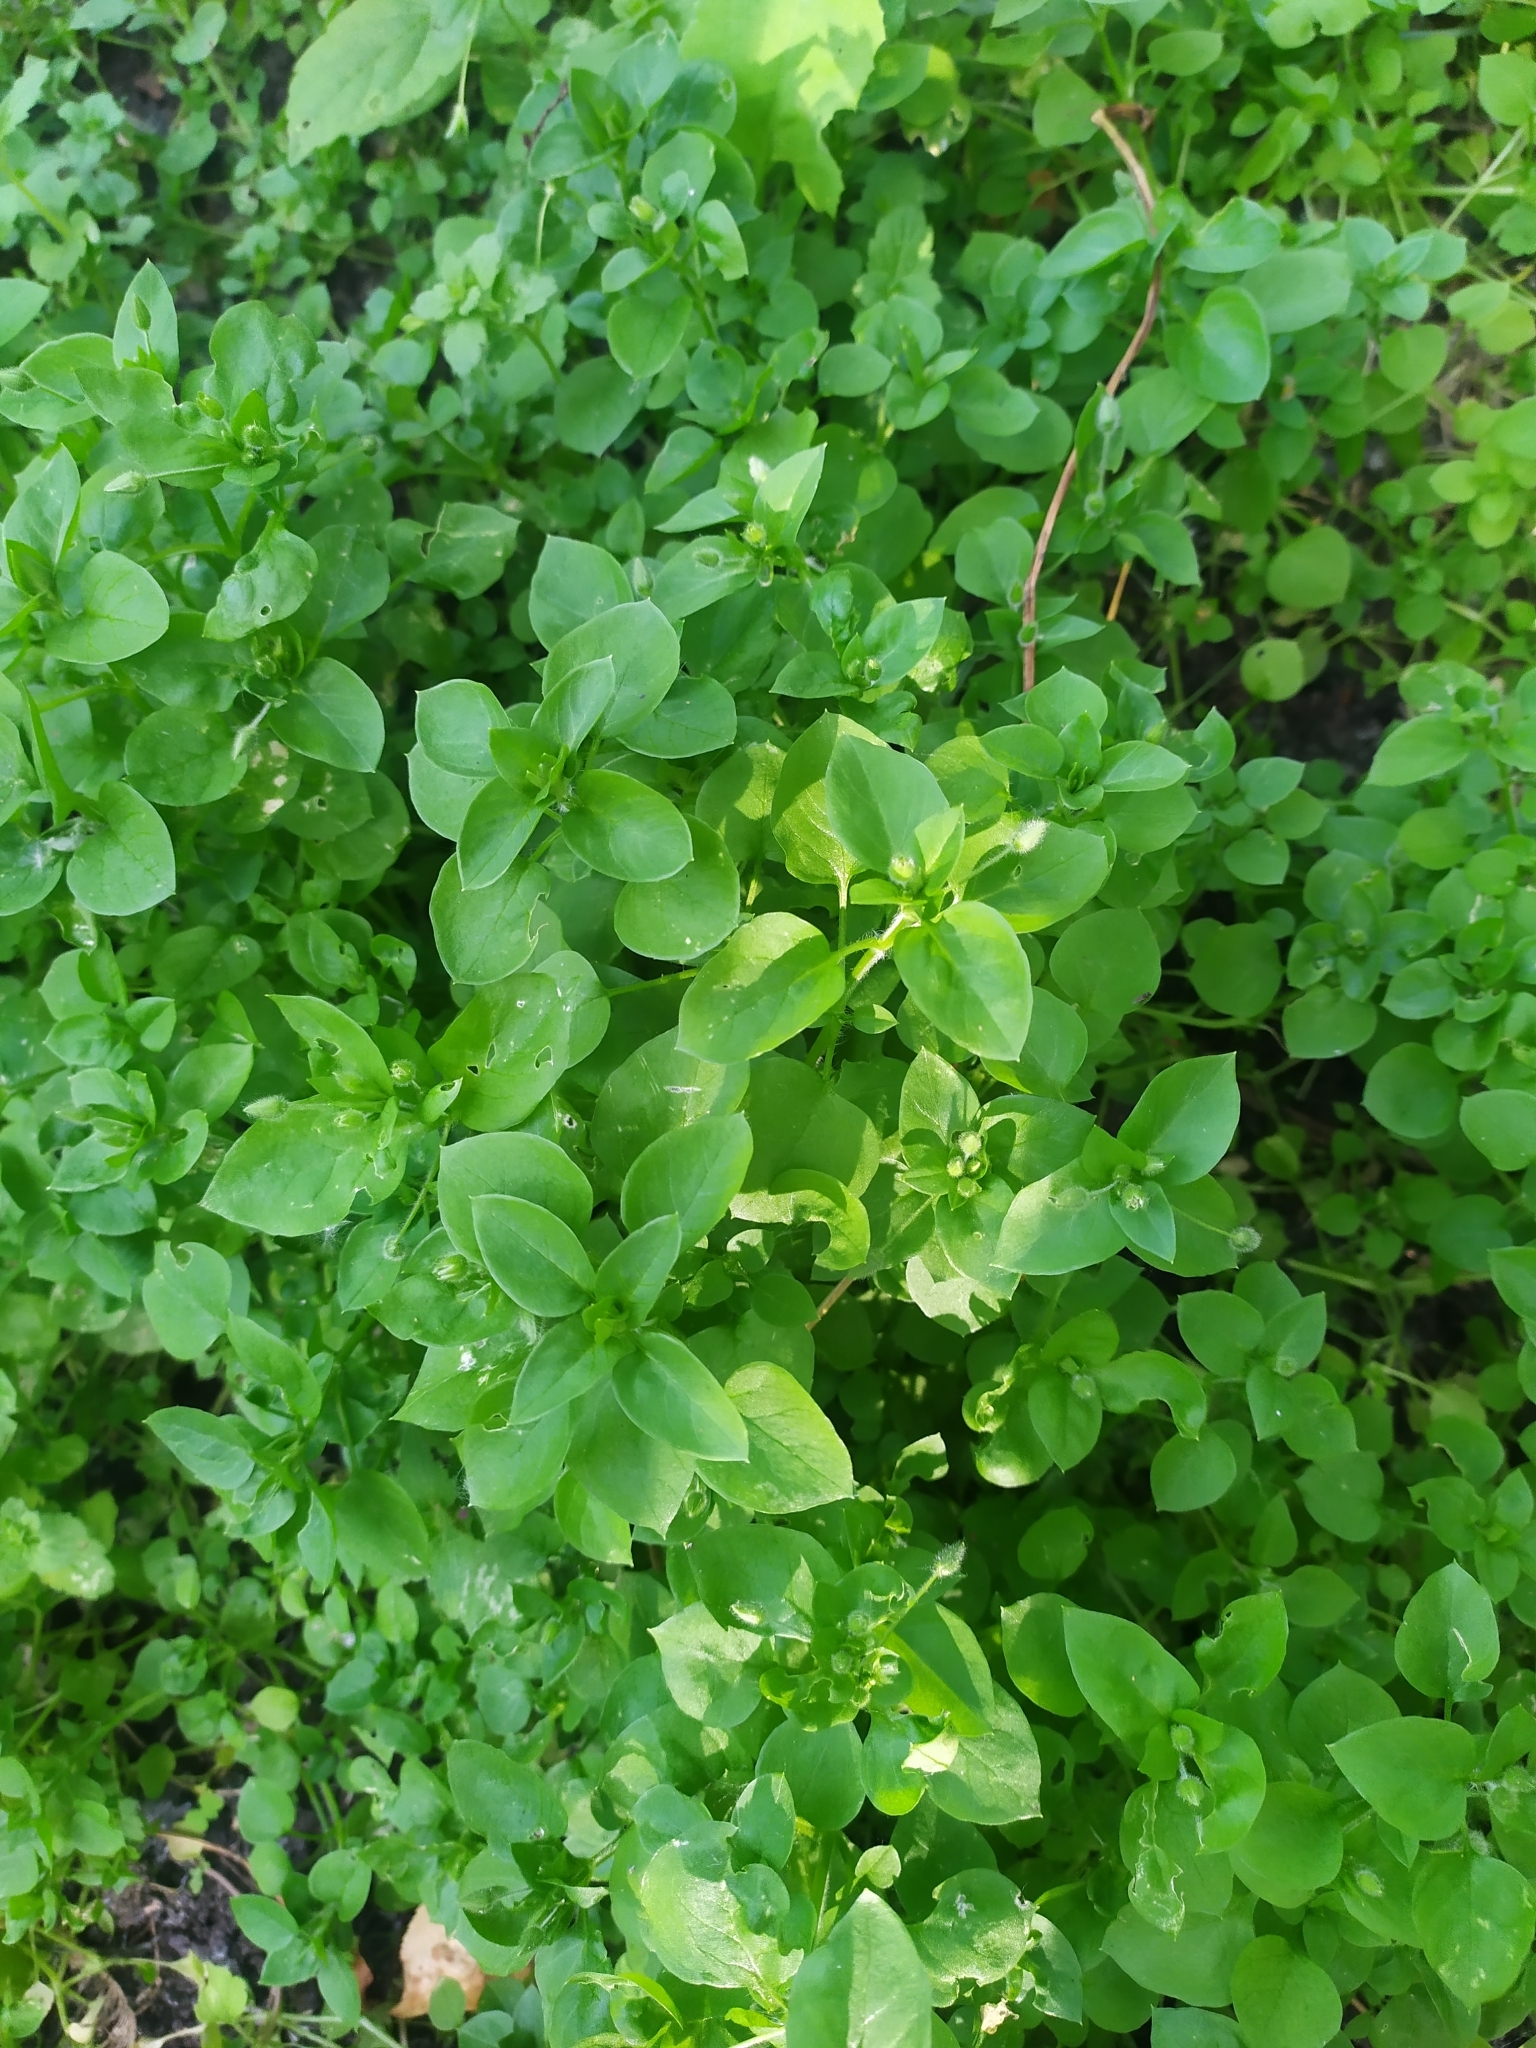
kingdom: Plantae
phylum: Tracheophyta
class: Magnoliopsida
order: Caryophyllales
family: Caryophyllaceae
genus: Stellaria
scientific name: Stellaria media
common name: Common chickweed
